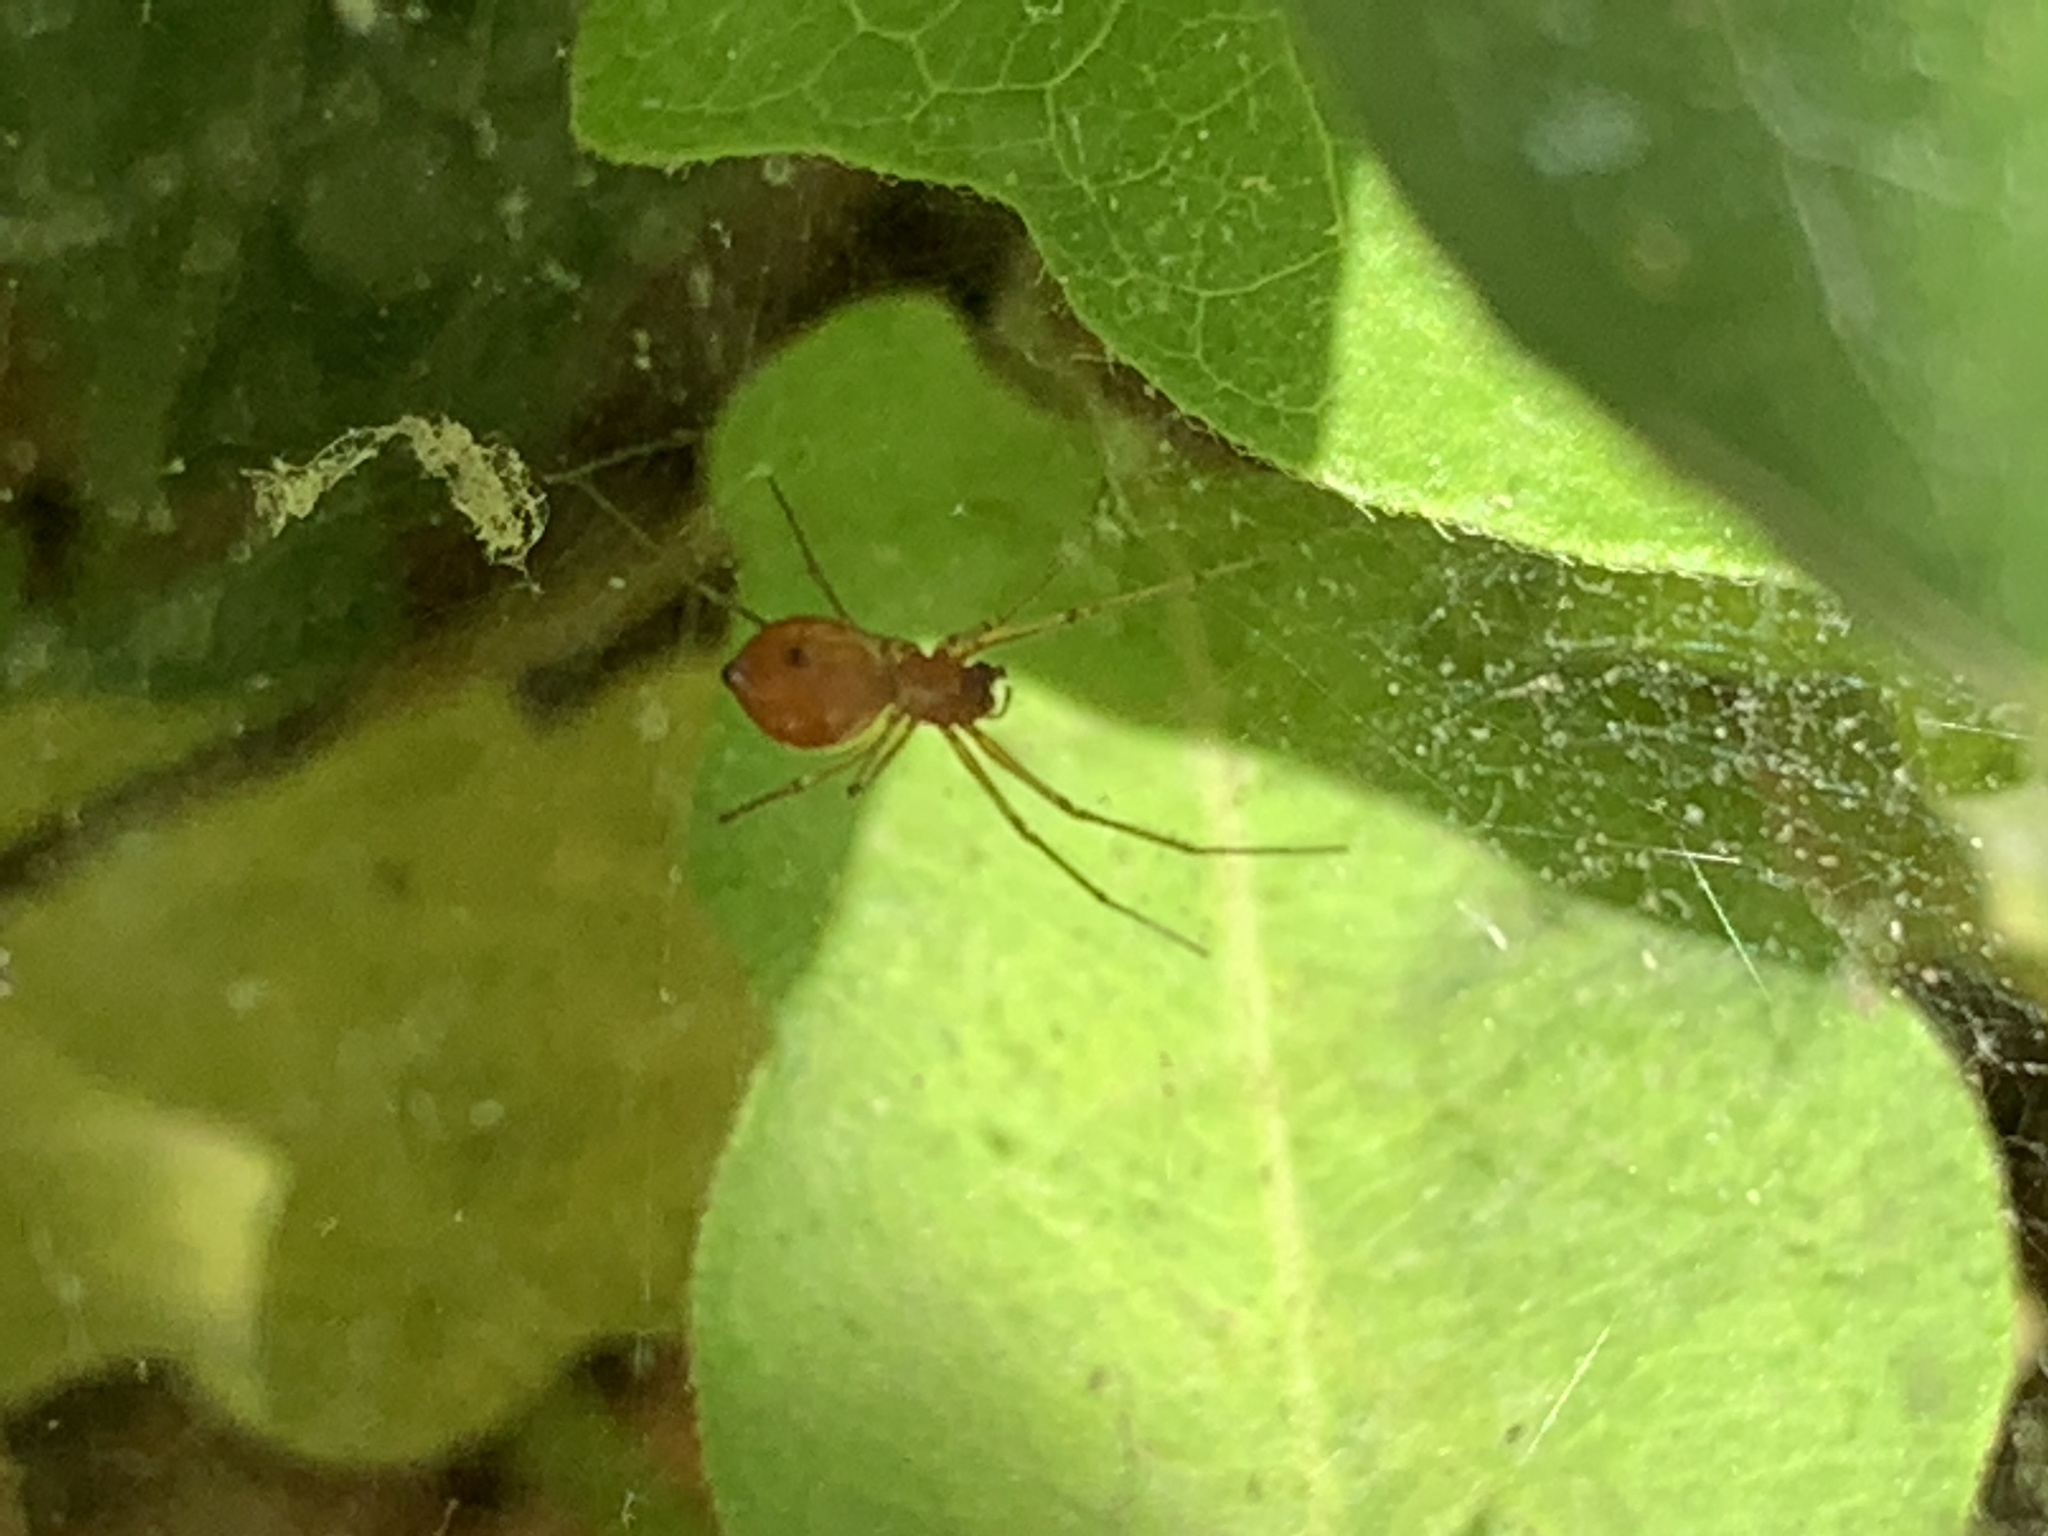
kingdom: Animalia
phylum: Arthropoda
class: Arachnida
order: Araneae
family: Linyphiidae
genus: Florinda
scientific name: Florinda coccinea
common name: Black-tailed red sheetweaver
